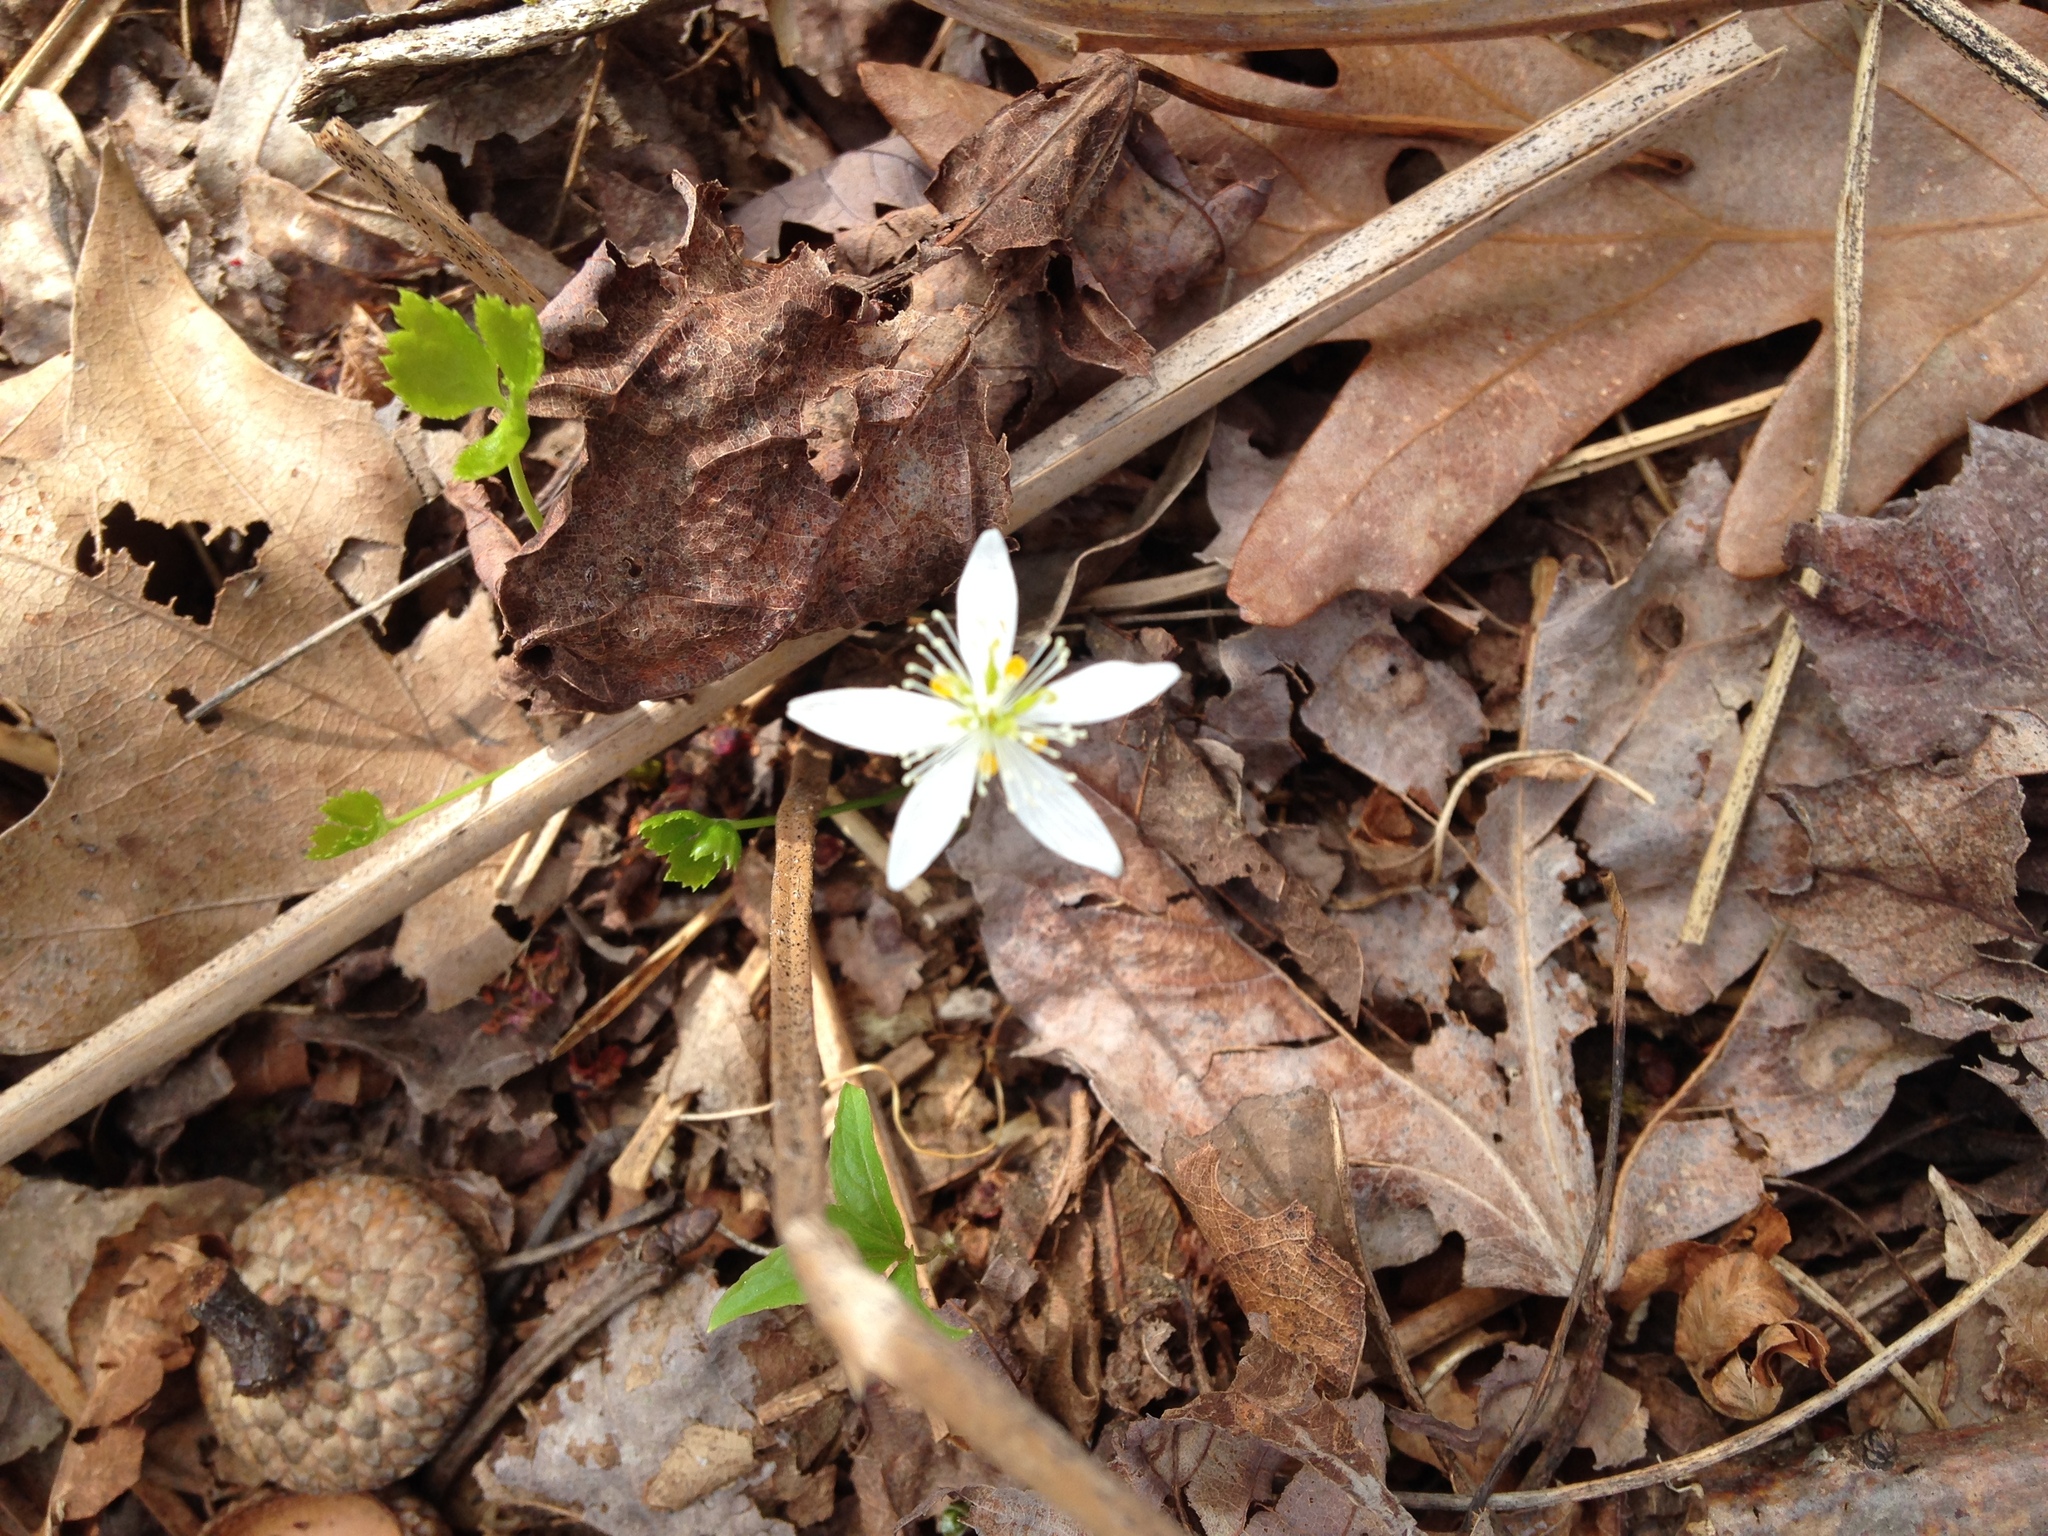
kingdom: Plantae
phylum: Tracheophyta
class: Magnoliopsida
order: Ranunculales
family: Ranunculaceae
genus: Coptis
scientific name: Coptis trifolia
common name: Canker-root
